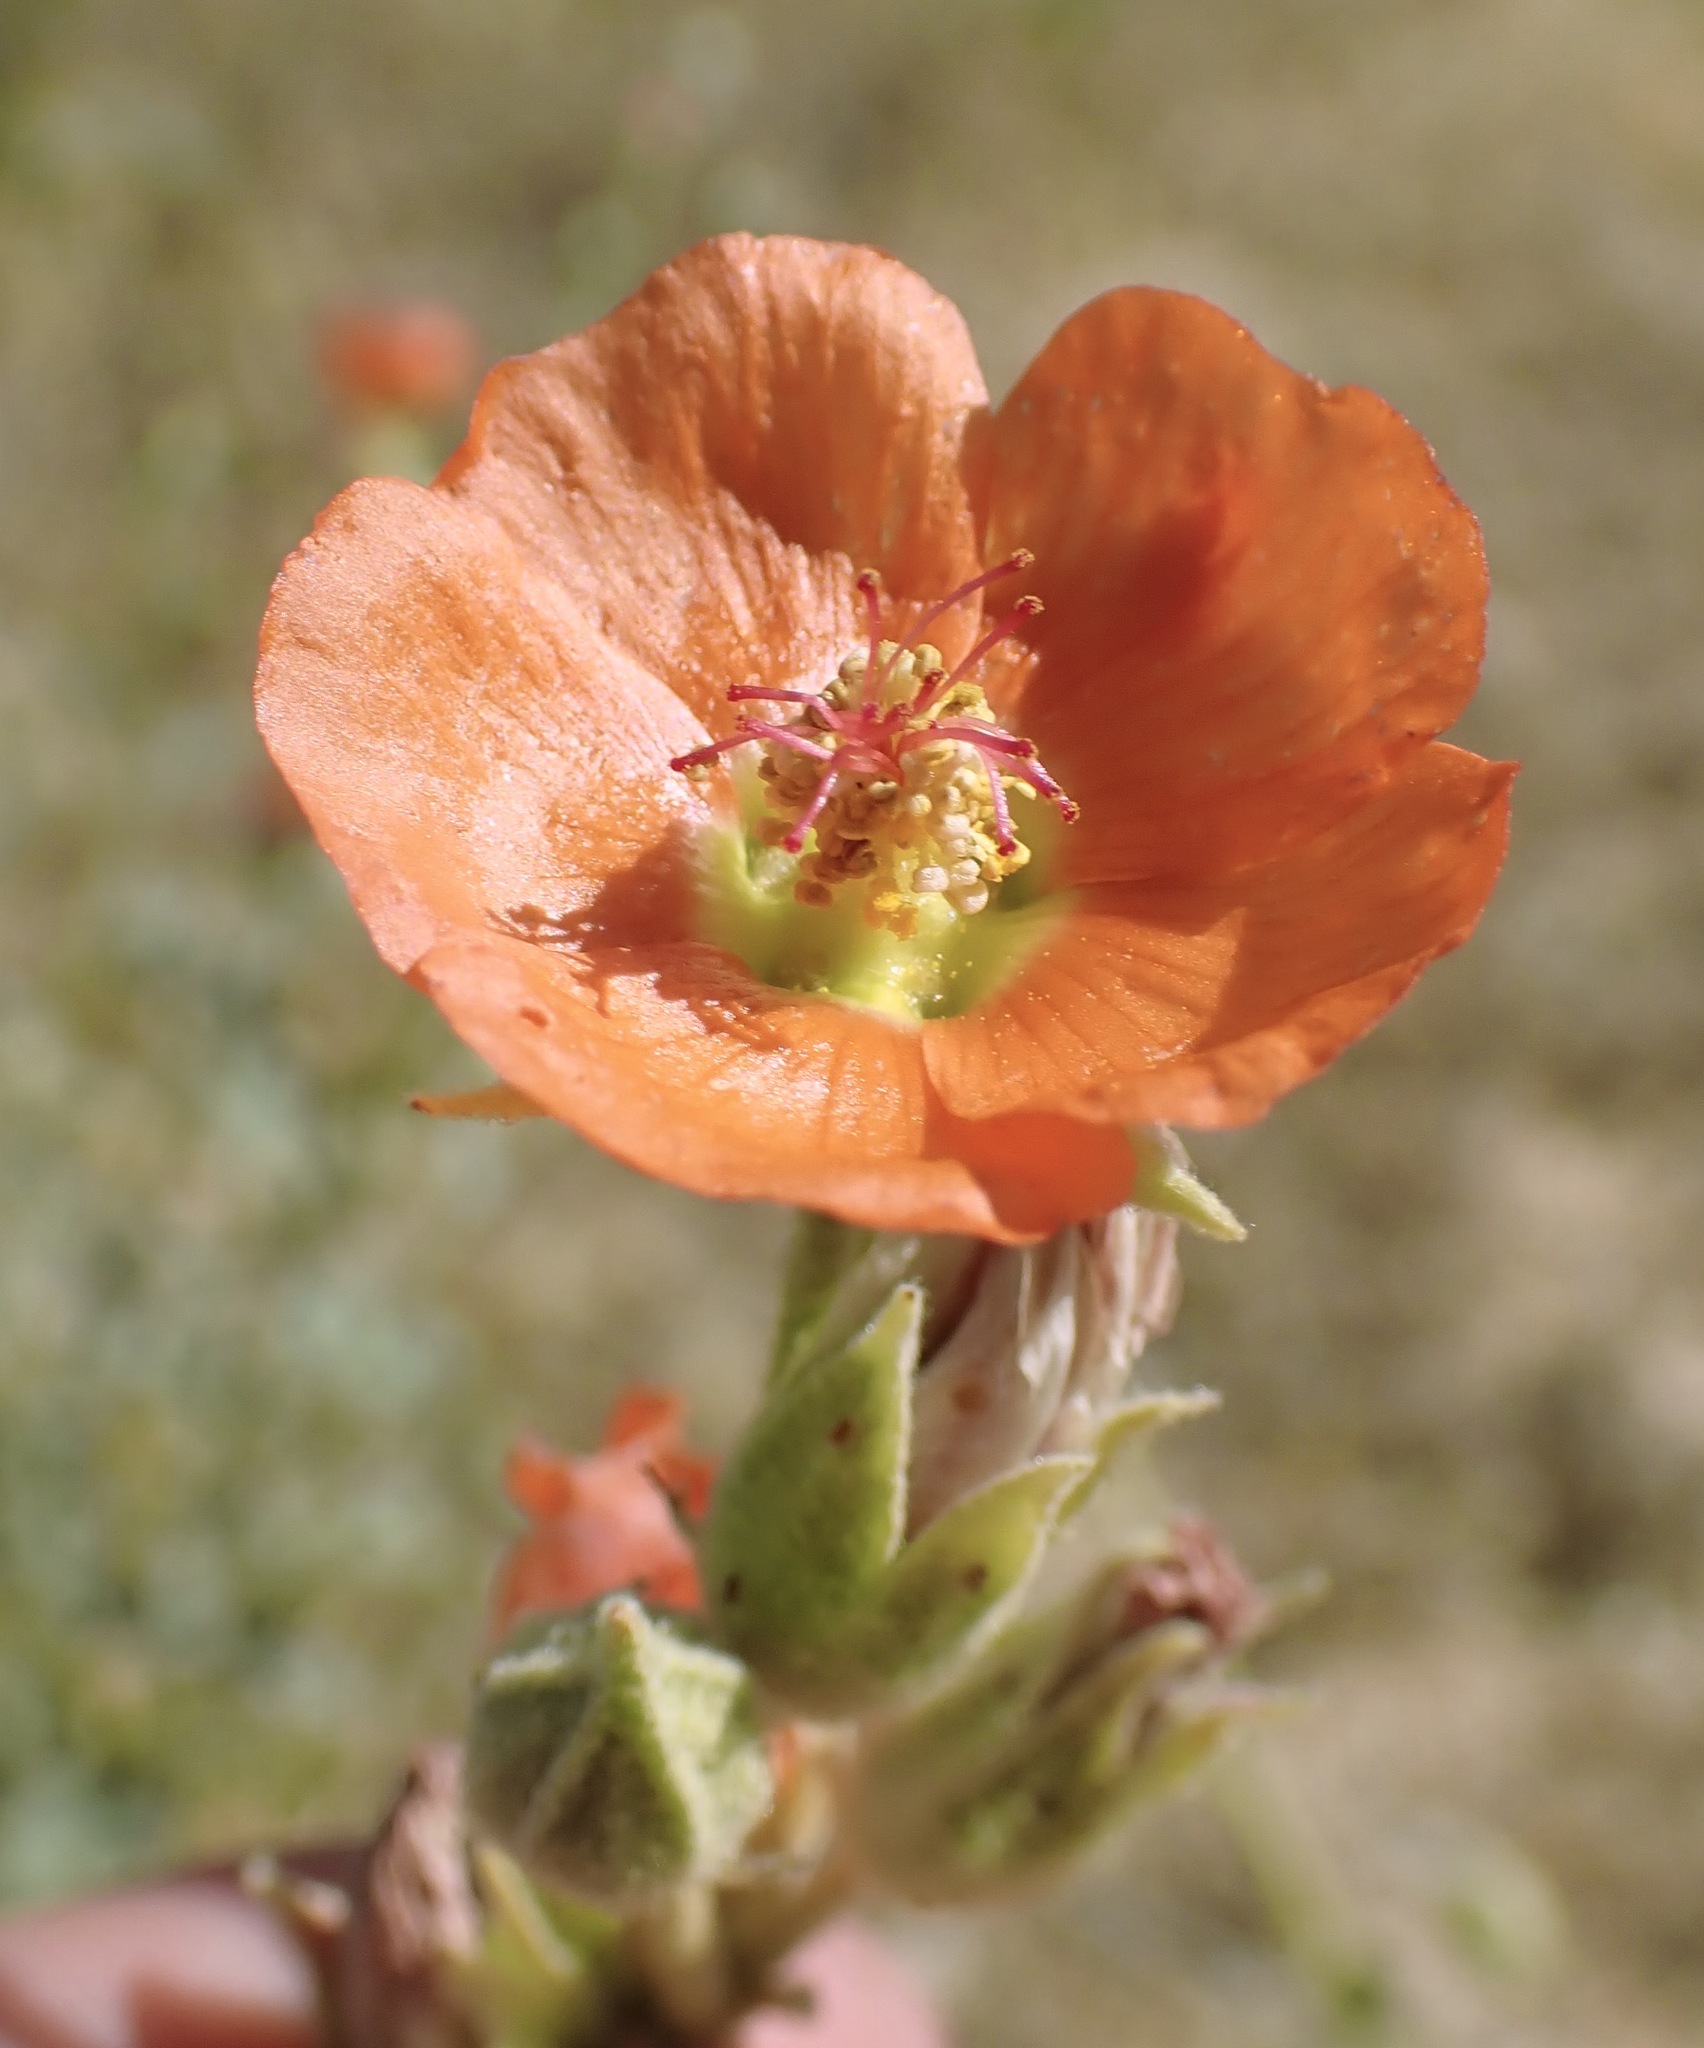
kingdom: Plantae
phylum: Tracheophyta
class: Magnoliopsida
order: Malvales
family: Malvaceae
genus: Sphaeralcea
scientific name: Sphaeralcea ambigua
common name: Apricot globe-mallow
